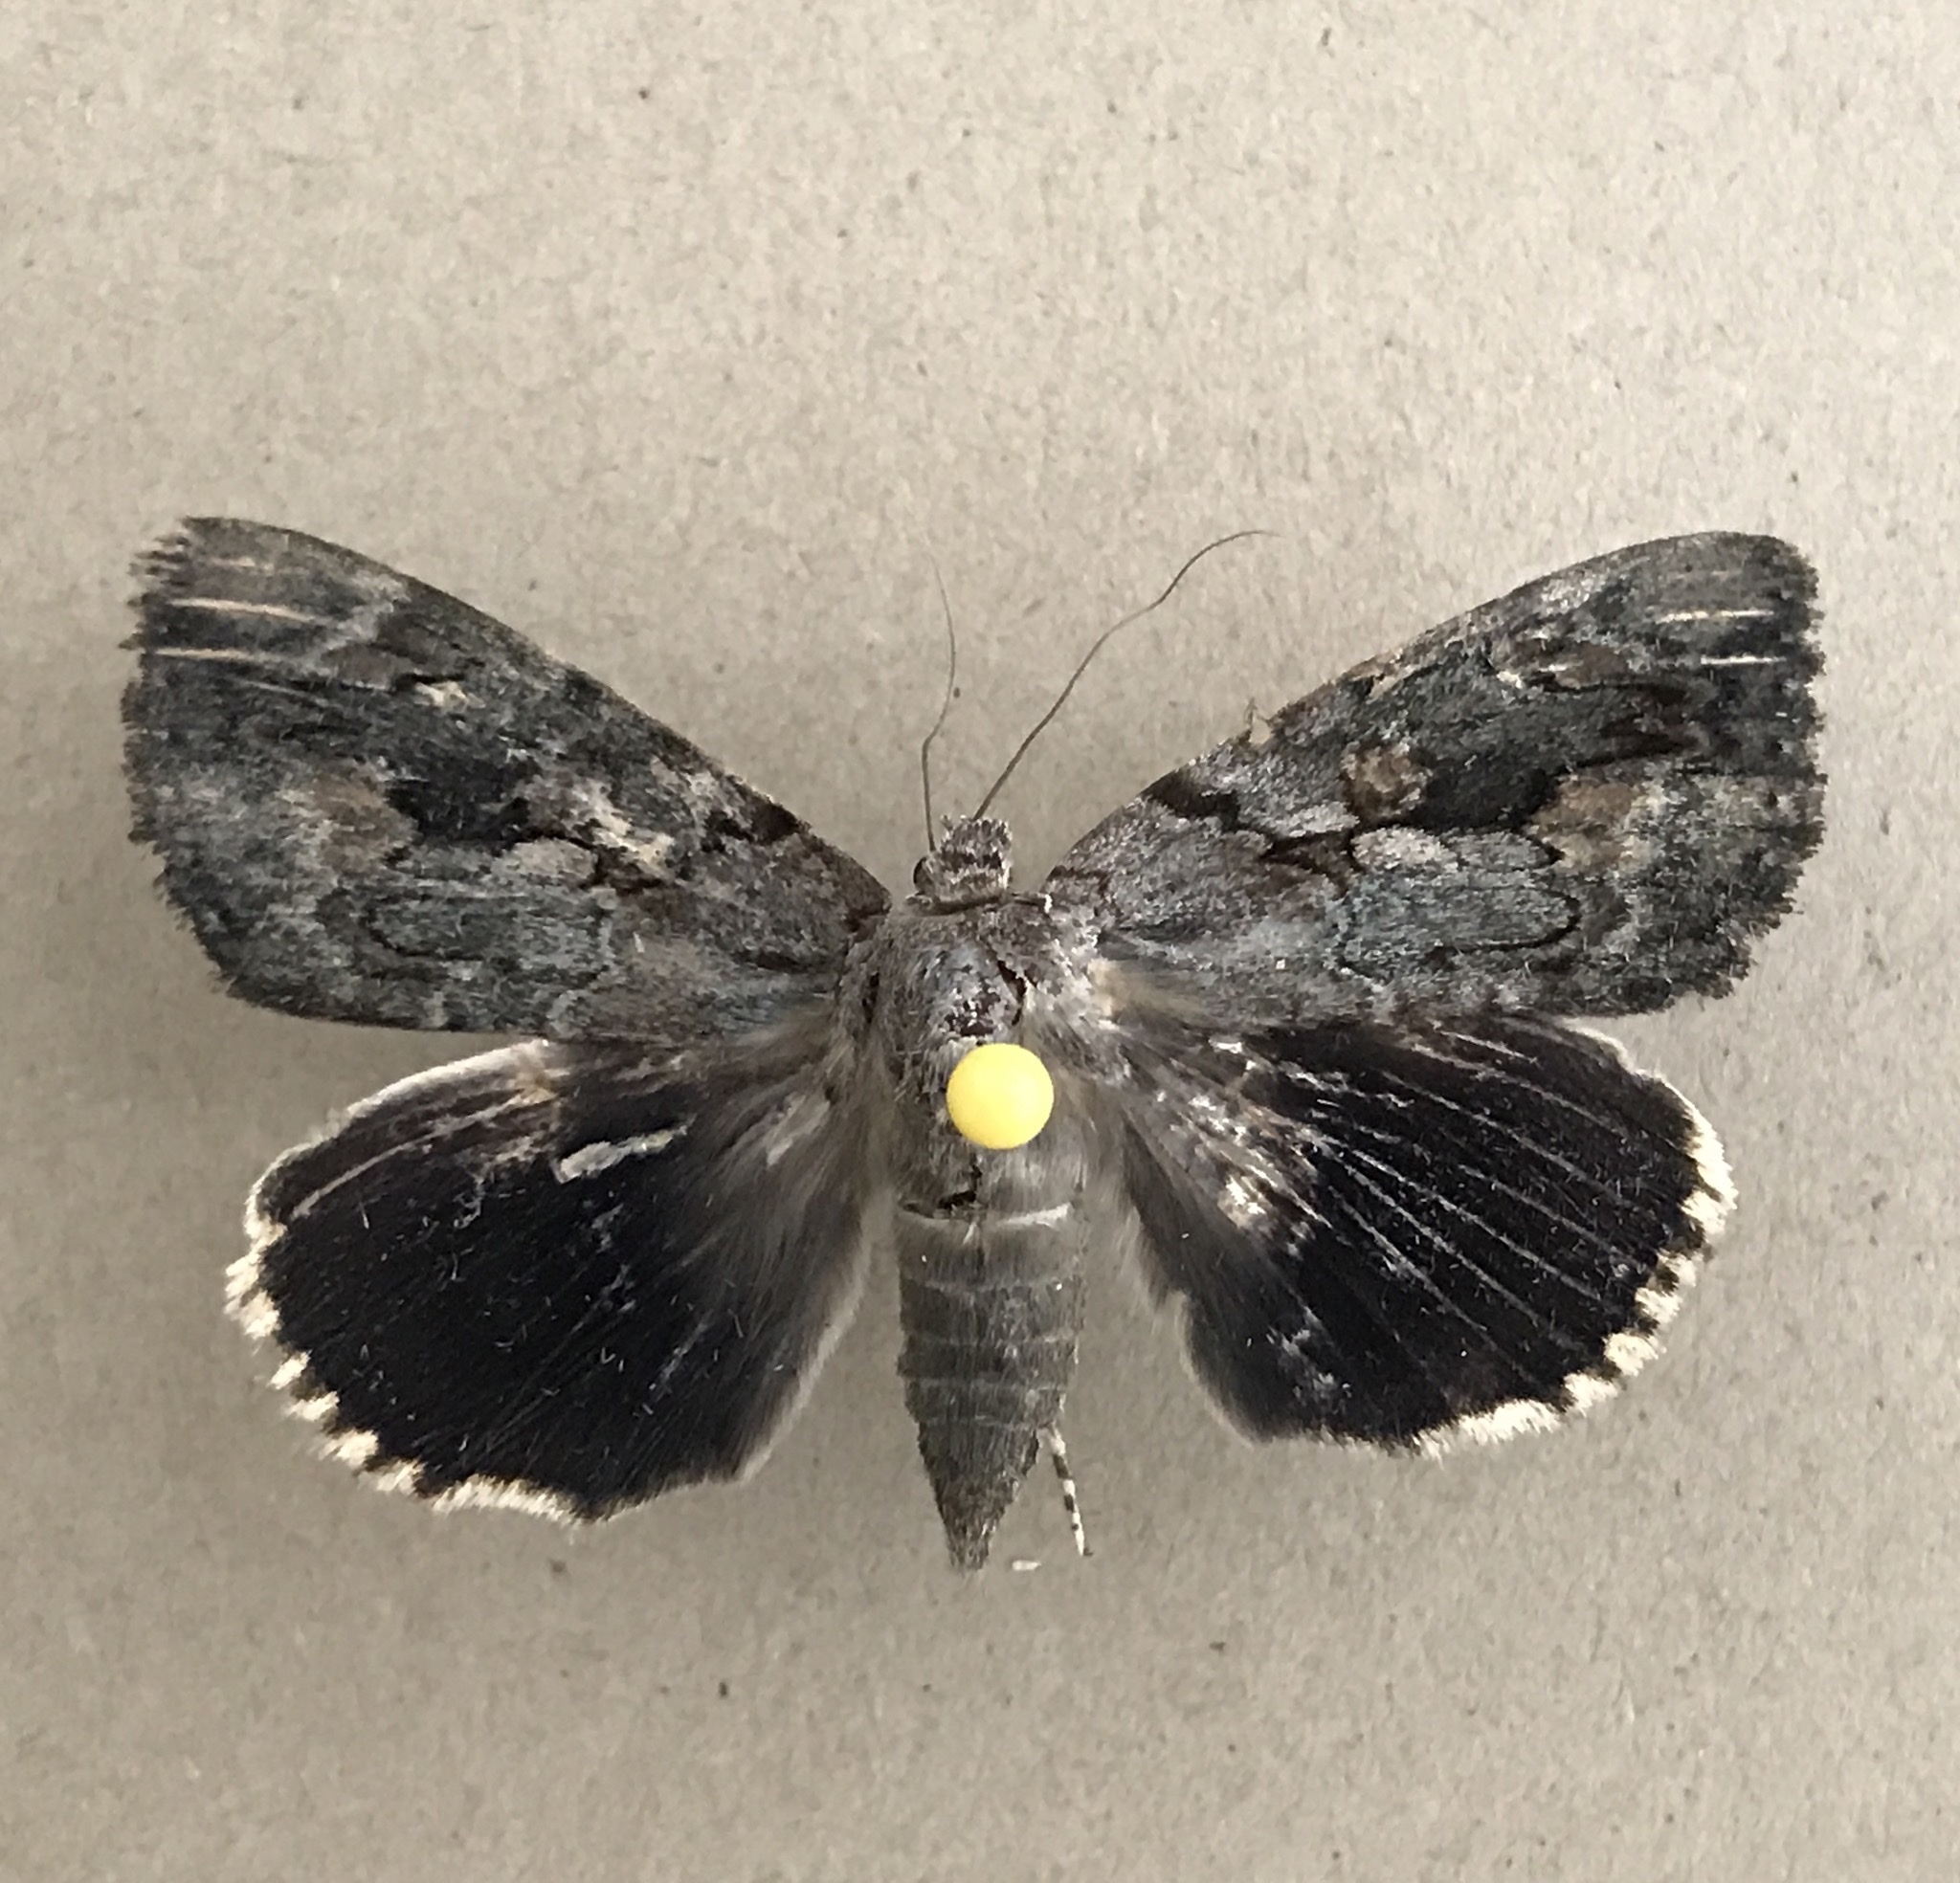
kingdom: Animalia
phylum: Arthropoda
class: Insecta
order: Lepidoptera
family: Erebidae
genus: Catocala
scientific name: Catocala agrippina
